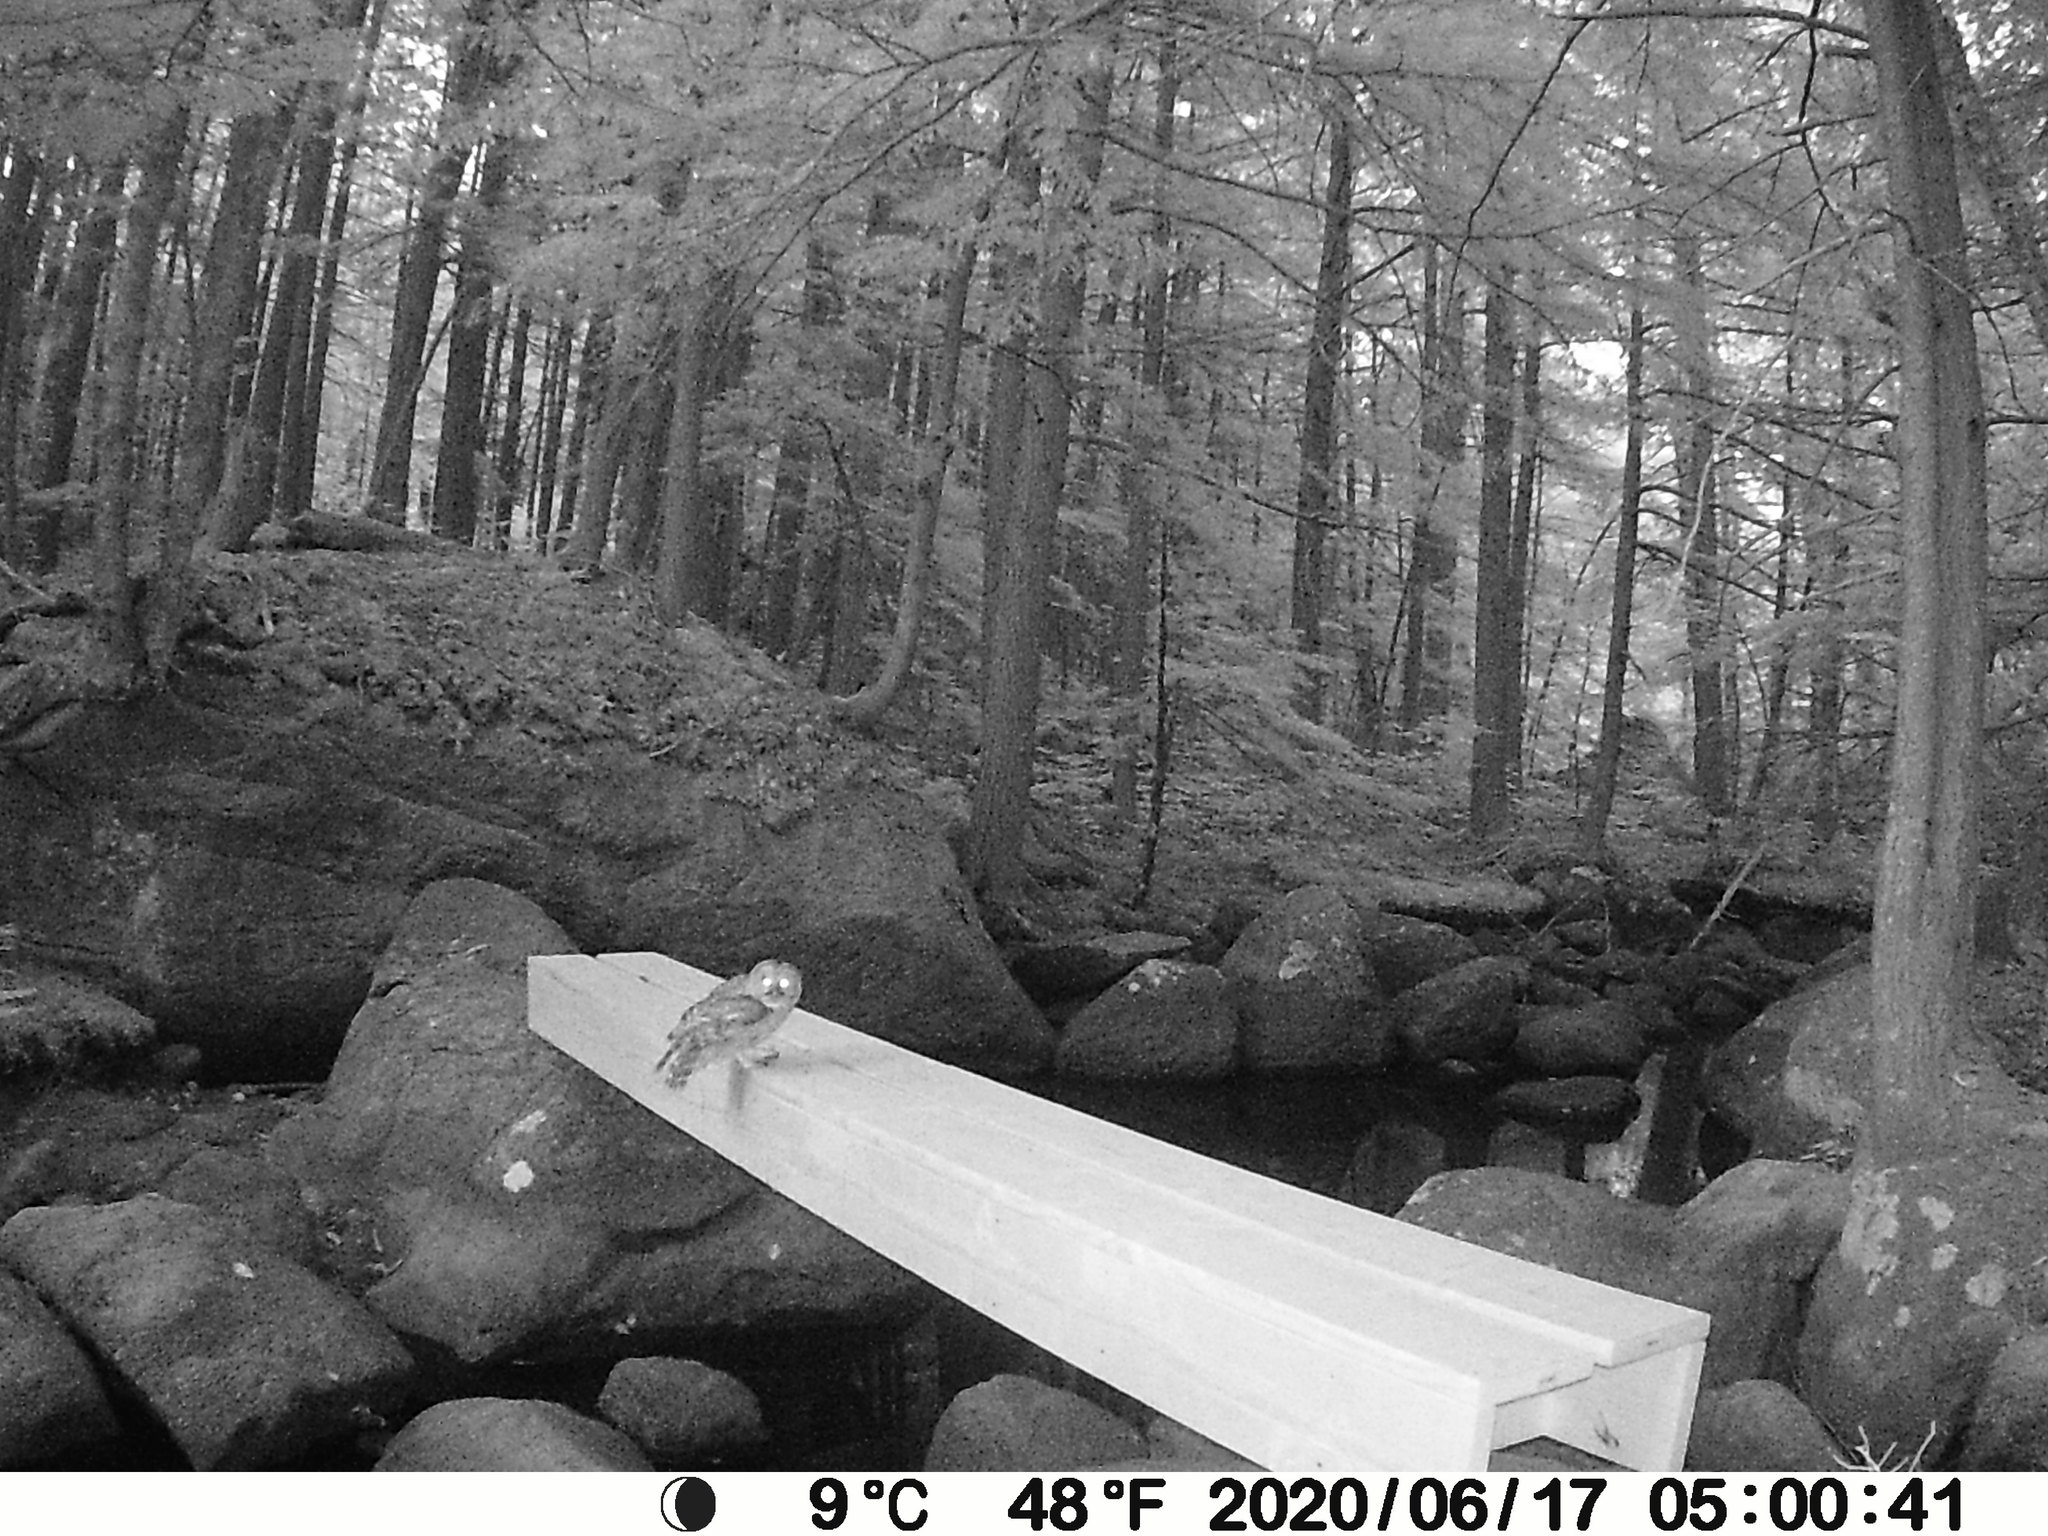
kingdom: Animalia
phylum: Chordata
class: Aves
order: Strigiformes
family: Strigidae
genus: Strix
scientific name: Strix varia
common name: Barred owl
